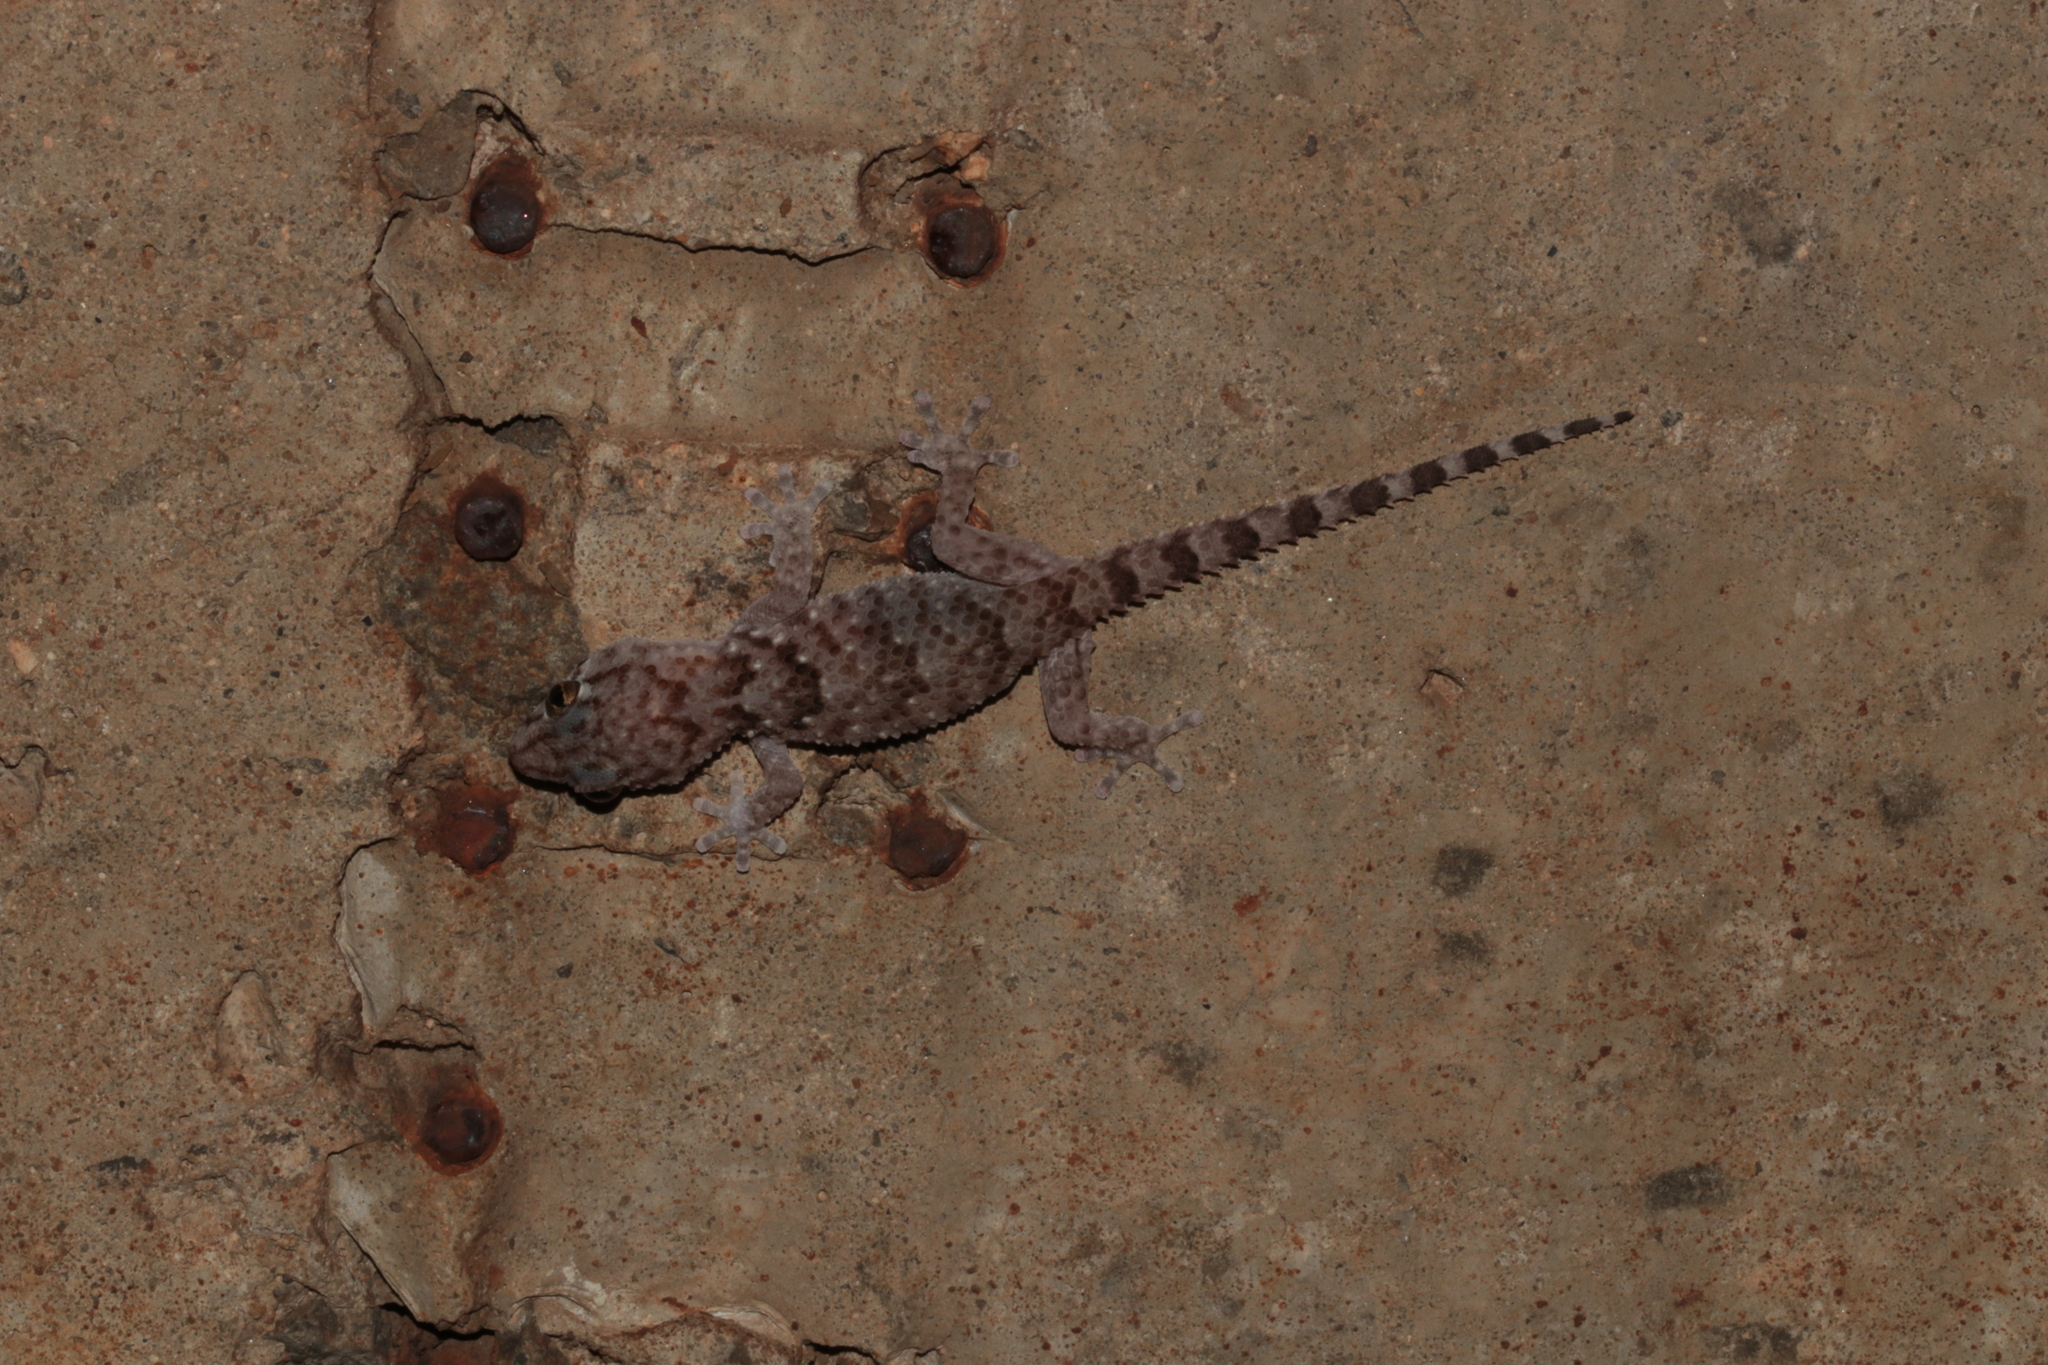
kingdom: Animalia
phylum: Chordata
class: Squamata
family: Gekkonidae
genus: Chondrodactylus
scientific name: Chondrodactylus turneri
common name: Turner’s gecko
